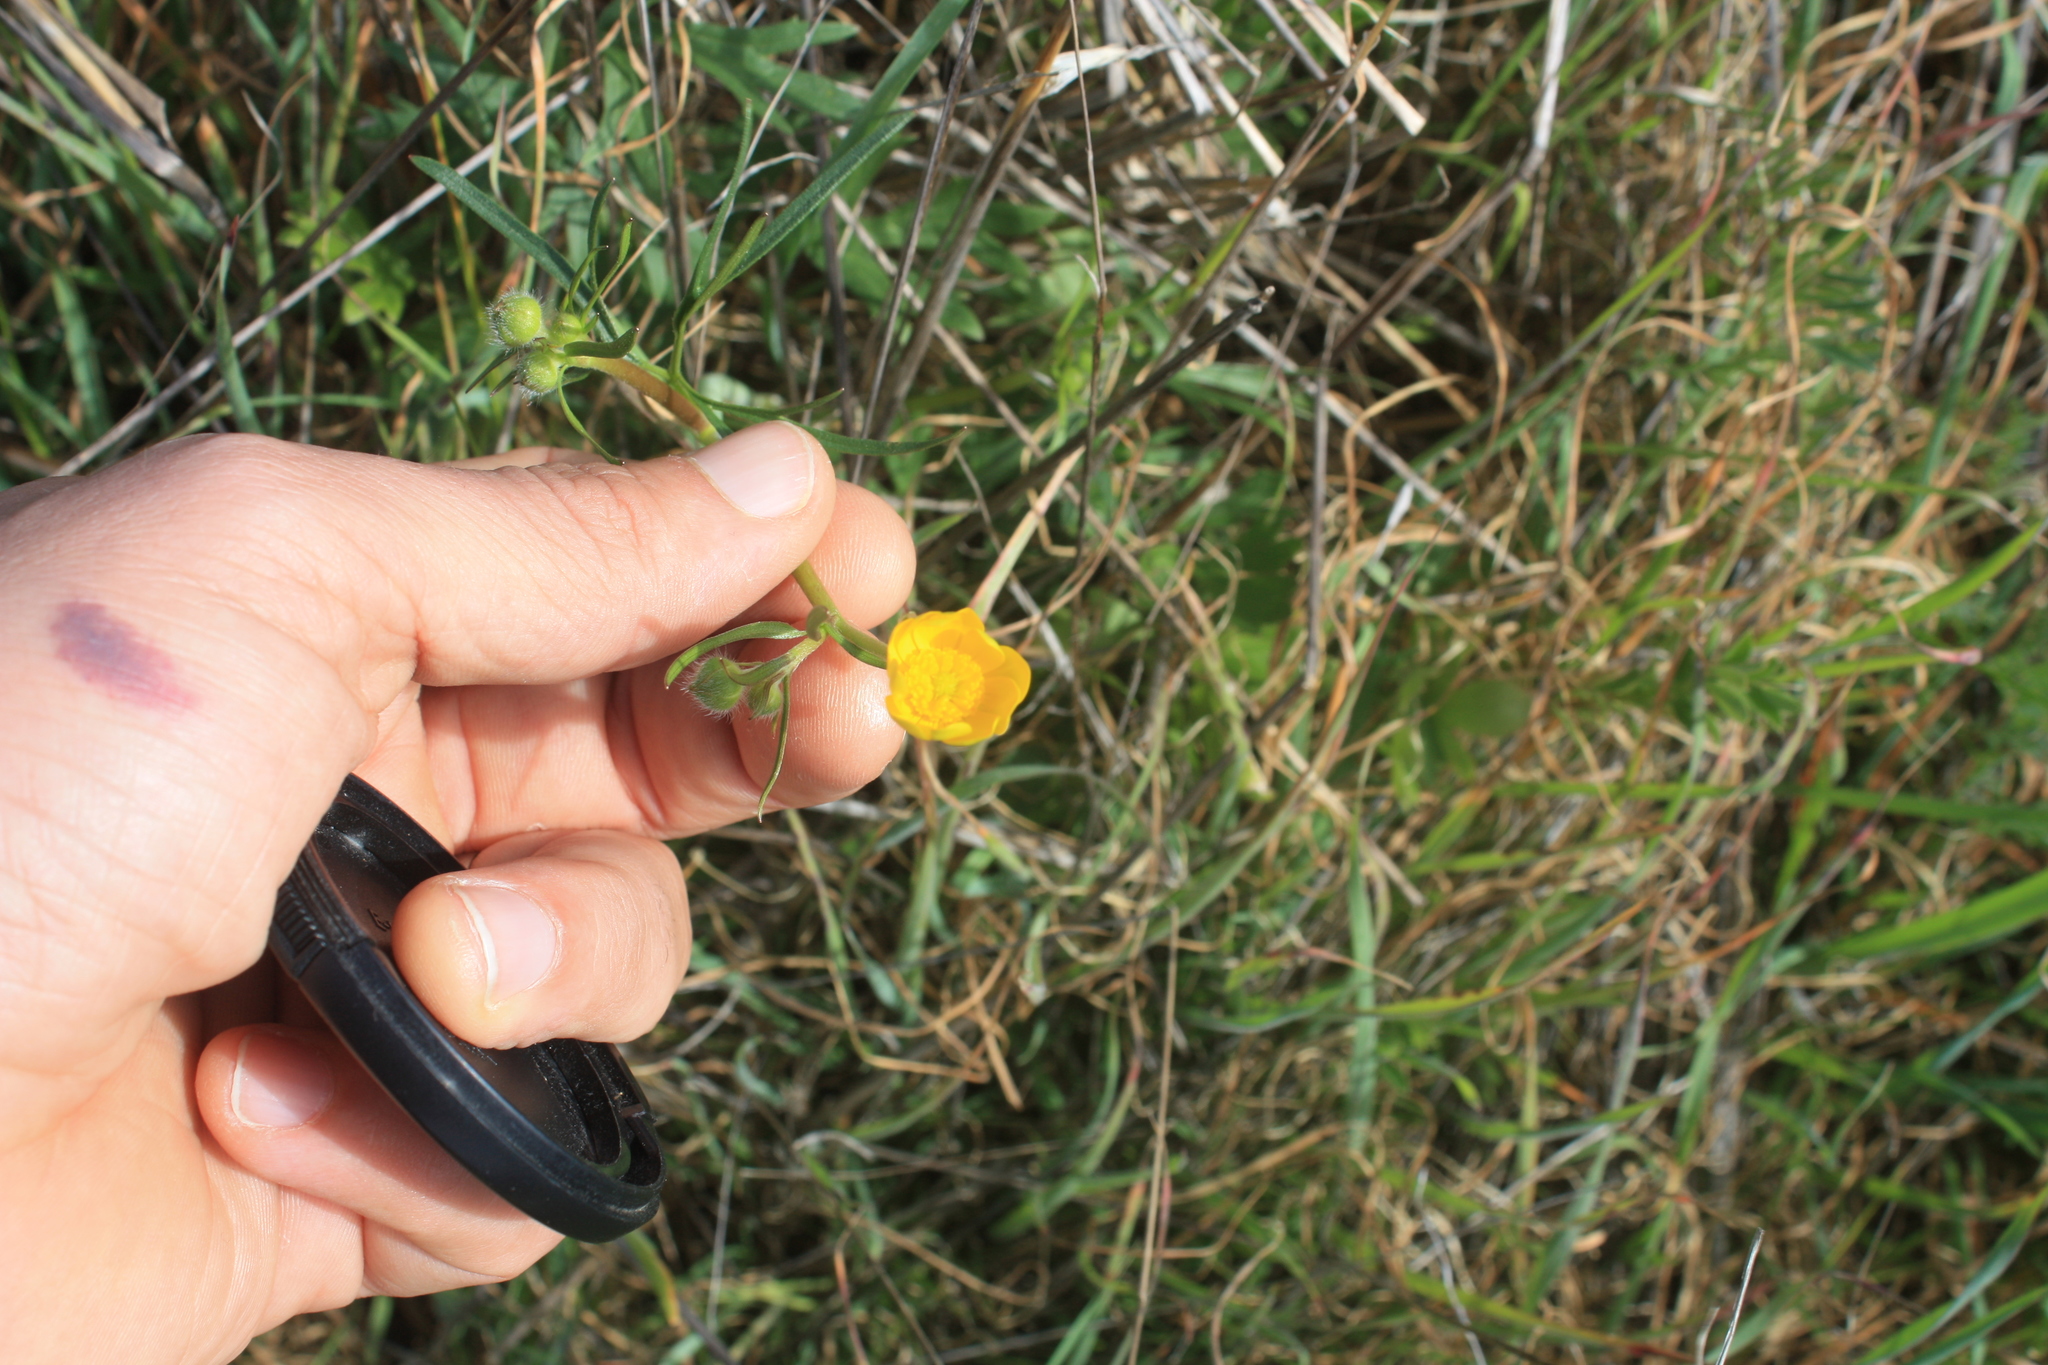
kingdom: Plantae
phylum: Tracheophyta
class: Magnoliopsida
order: Ranunculales
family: Ranunculaceae
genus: Ranunculus
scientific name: Ranunculus californicus
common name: California buttercup
